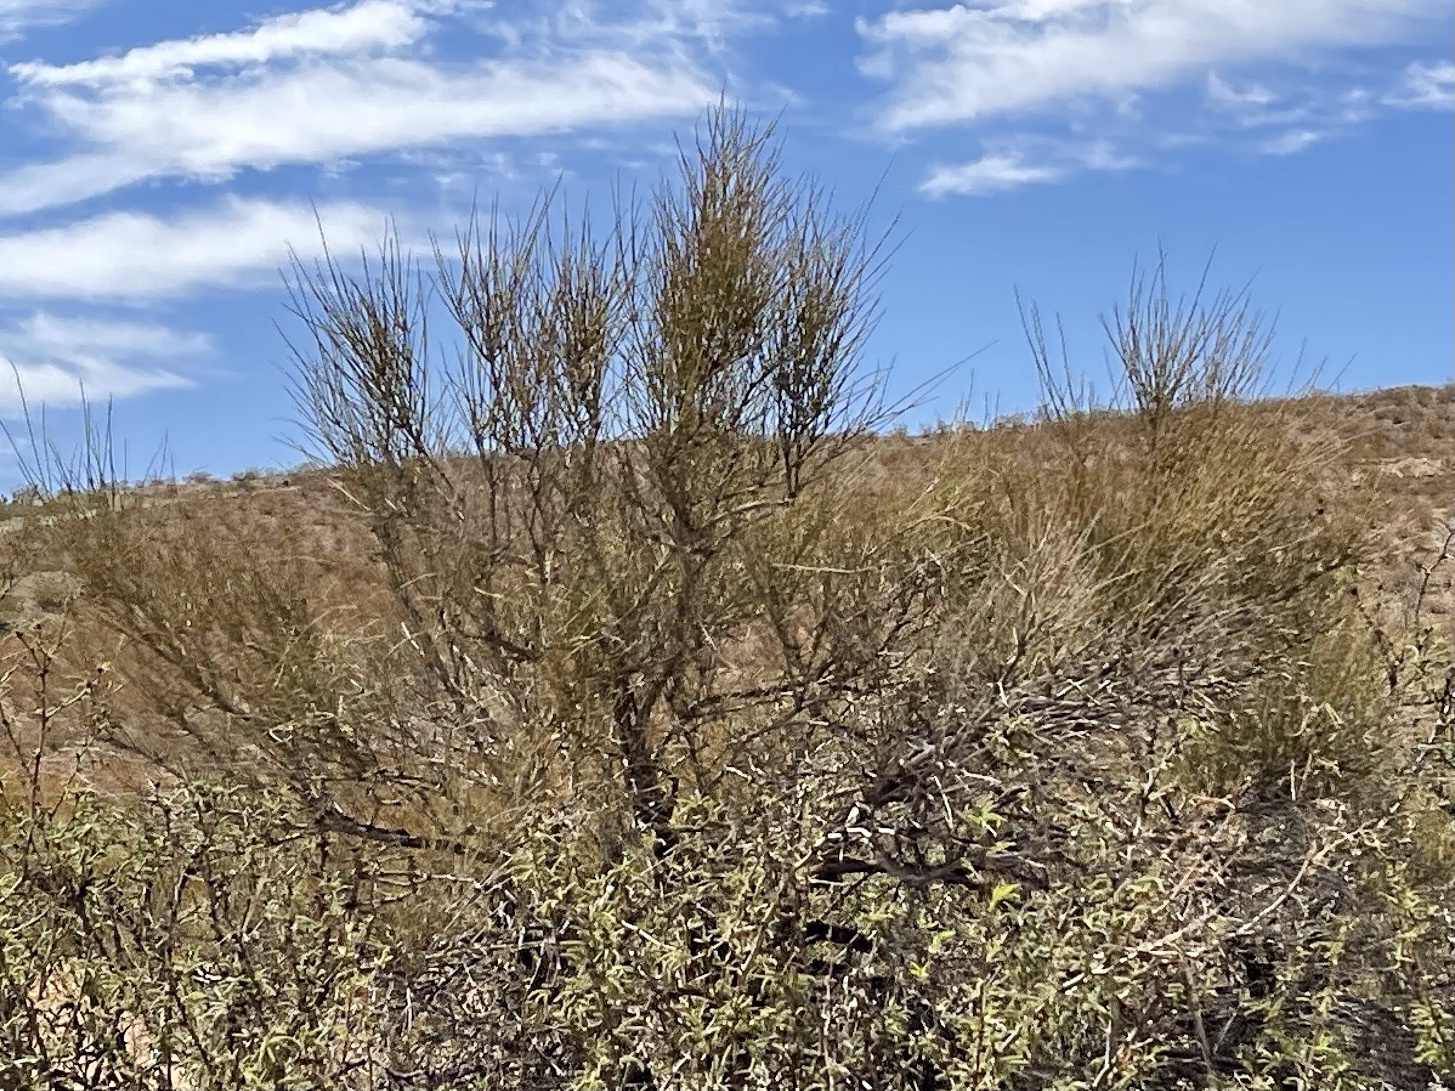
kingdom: Plantae
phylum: Tracheophyta
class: Gnetopsida
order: Ephedrales
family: Ephedraceae
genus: Ephedra
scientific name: Ephedra trifurca
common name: Mexican-tea
